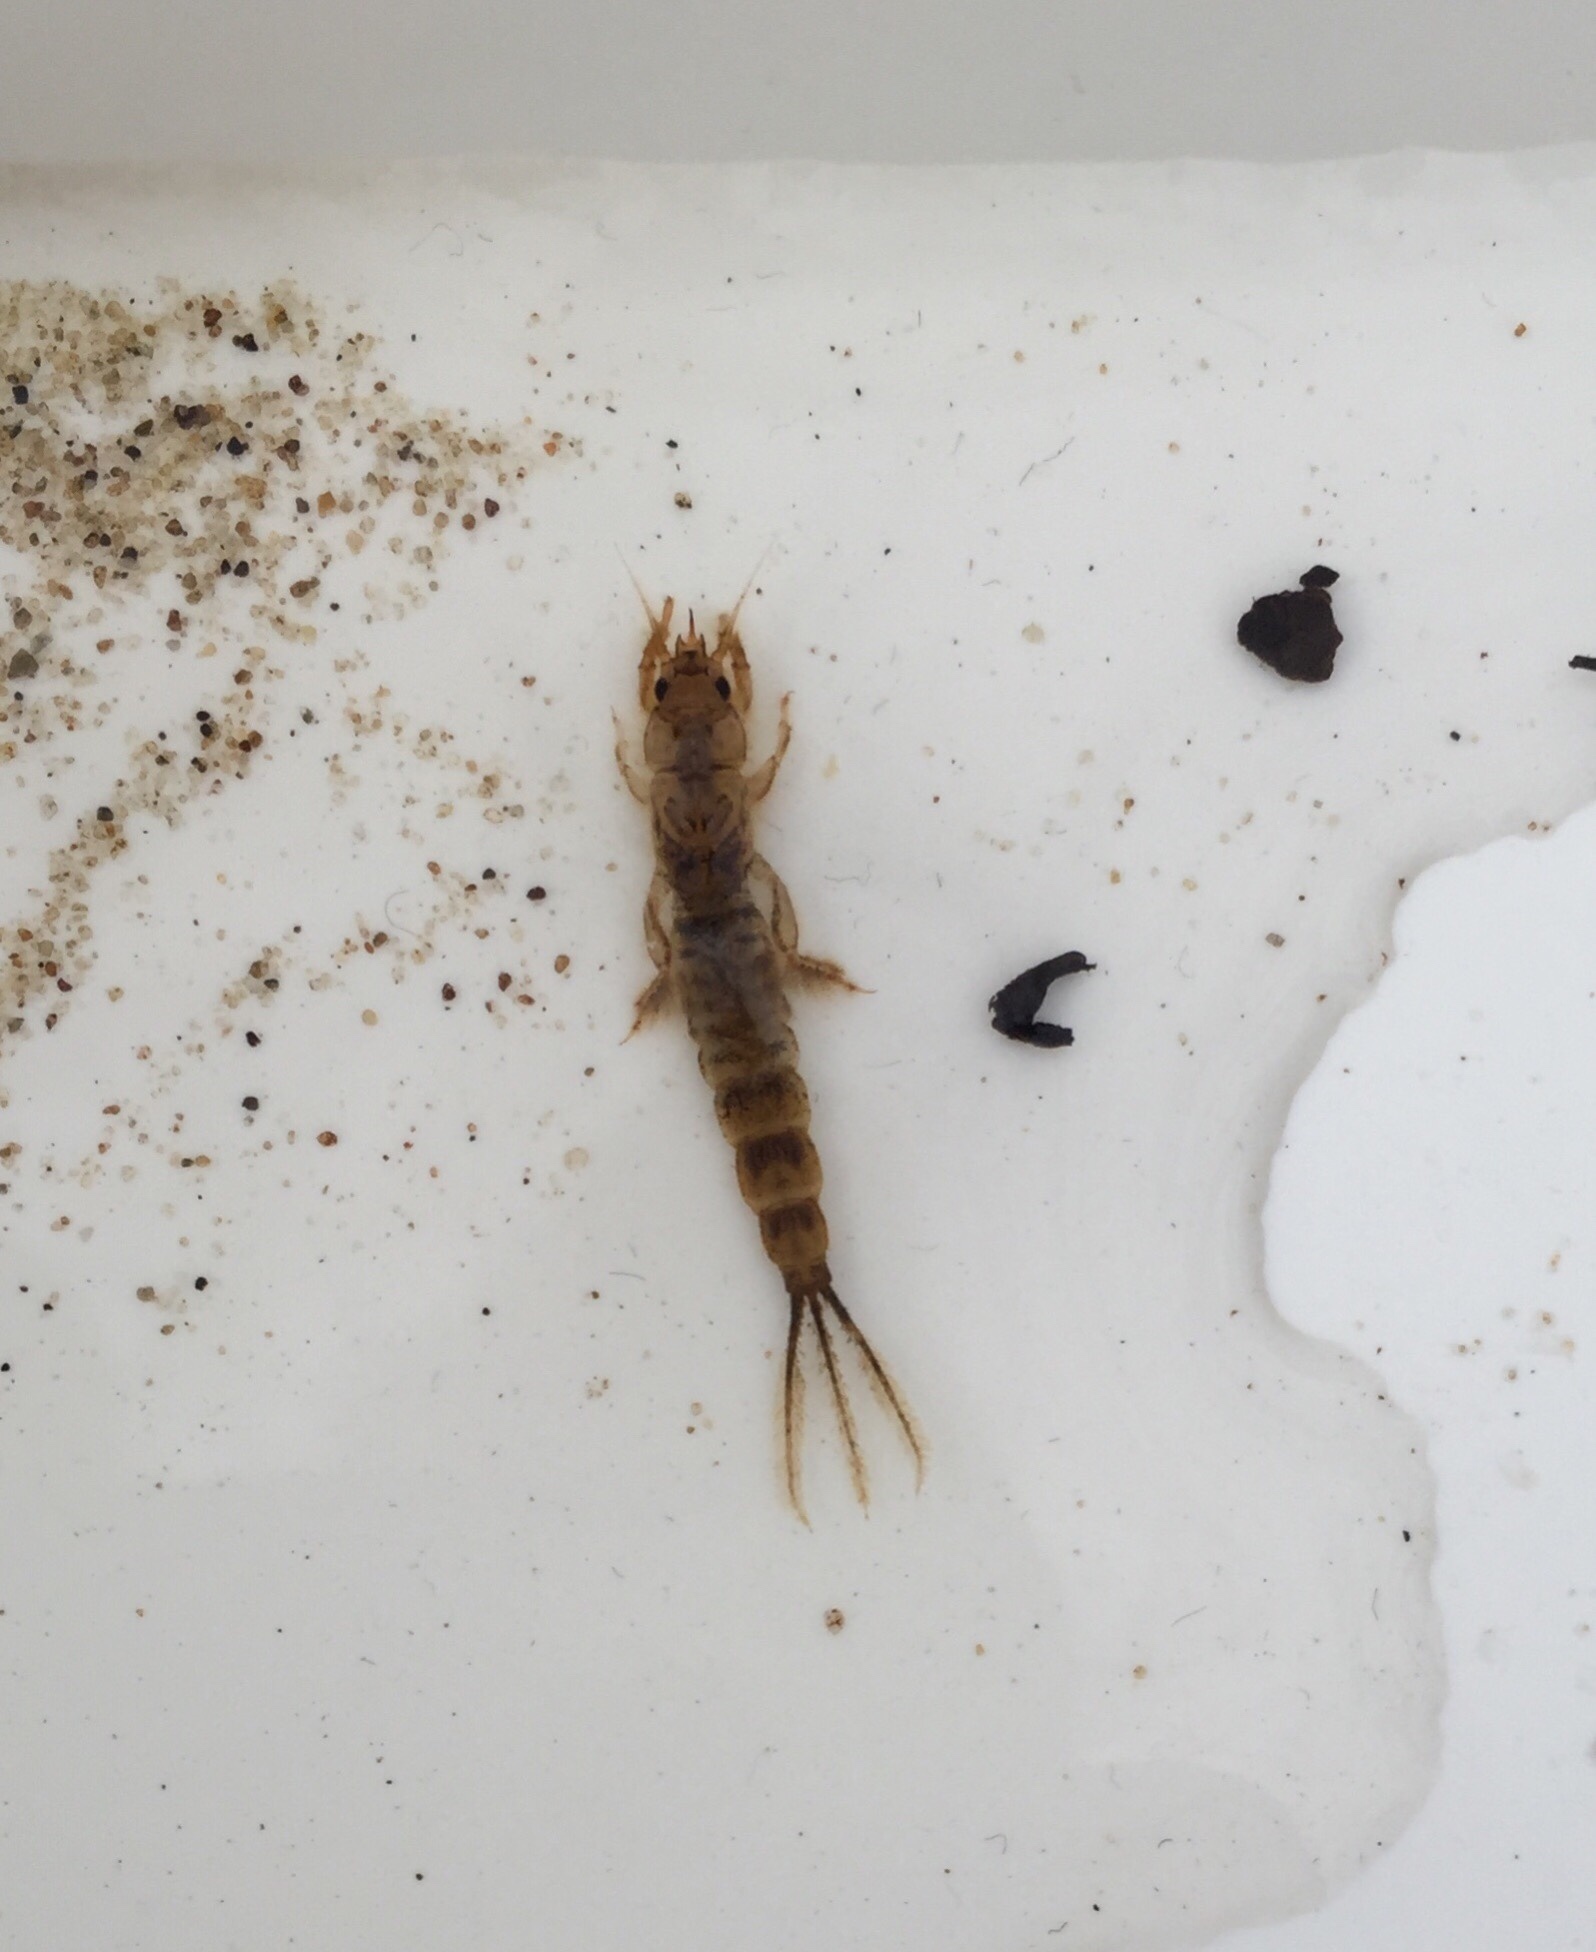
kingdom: Animalia
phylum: Arthropoda
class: Insecta
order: Ephemeroptera
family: Ephemeridae
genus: Ephemera
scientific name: Ephemera danica
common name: Green dun
